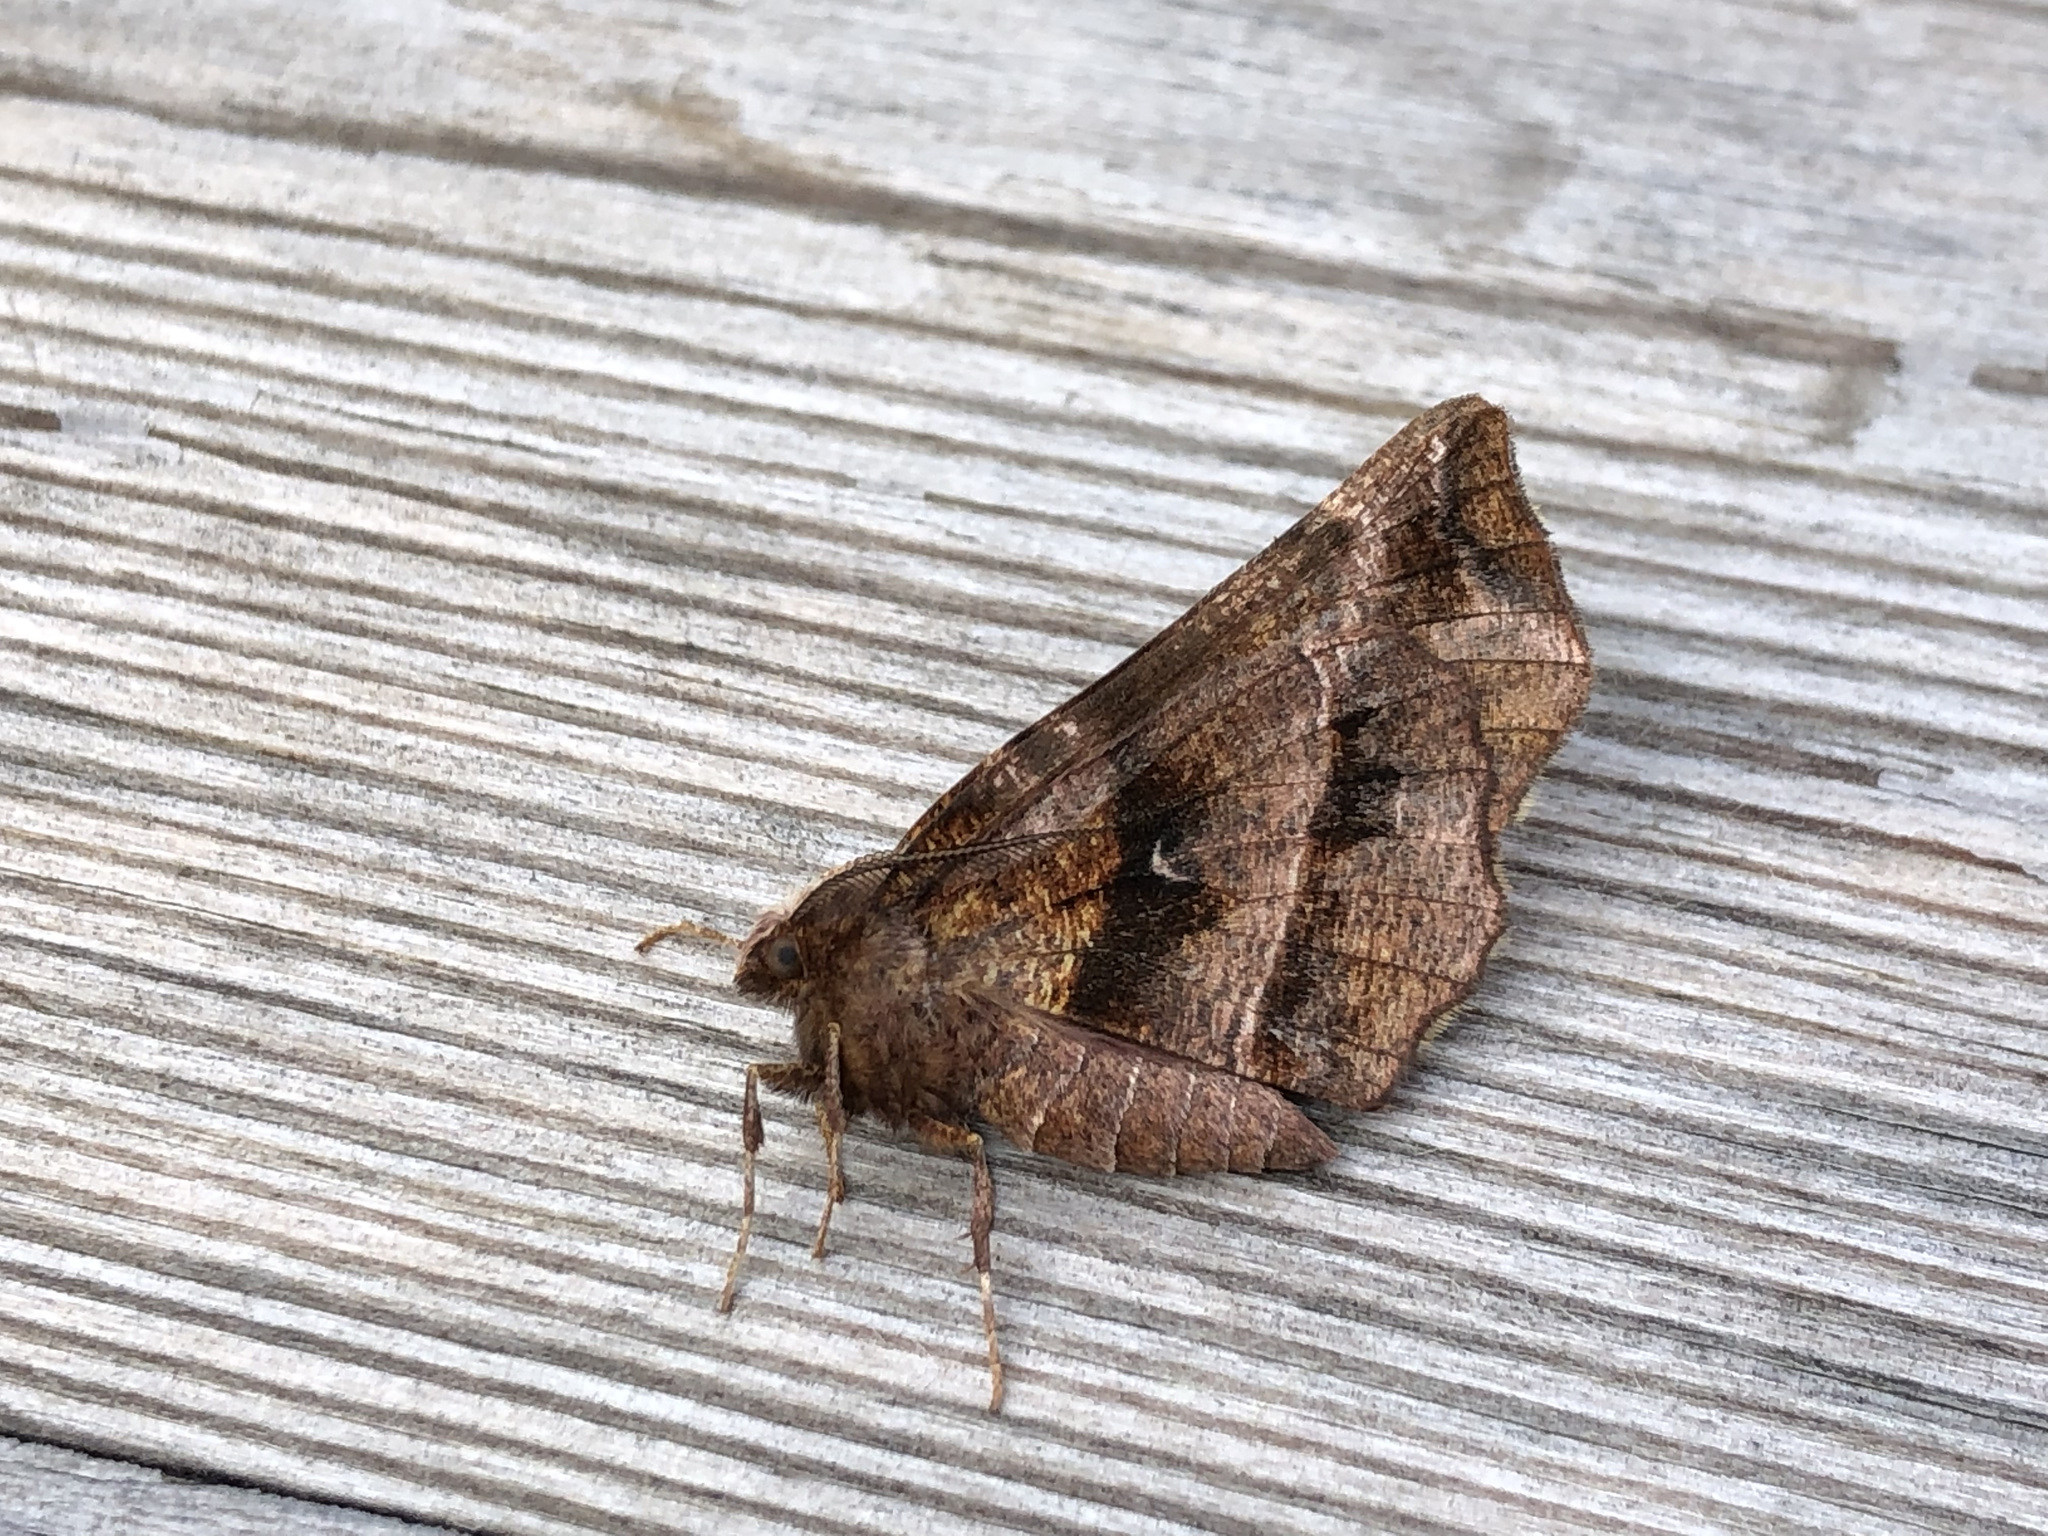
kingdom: Animalia
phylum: Arthropoda
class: Insecta
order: Lepidoptera
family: Geometridae
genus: Selenia
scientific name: Selenia dentaria
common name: Early thorn
